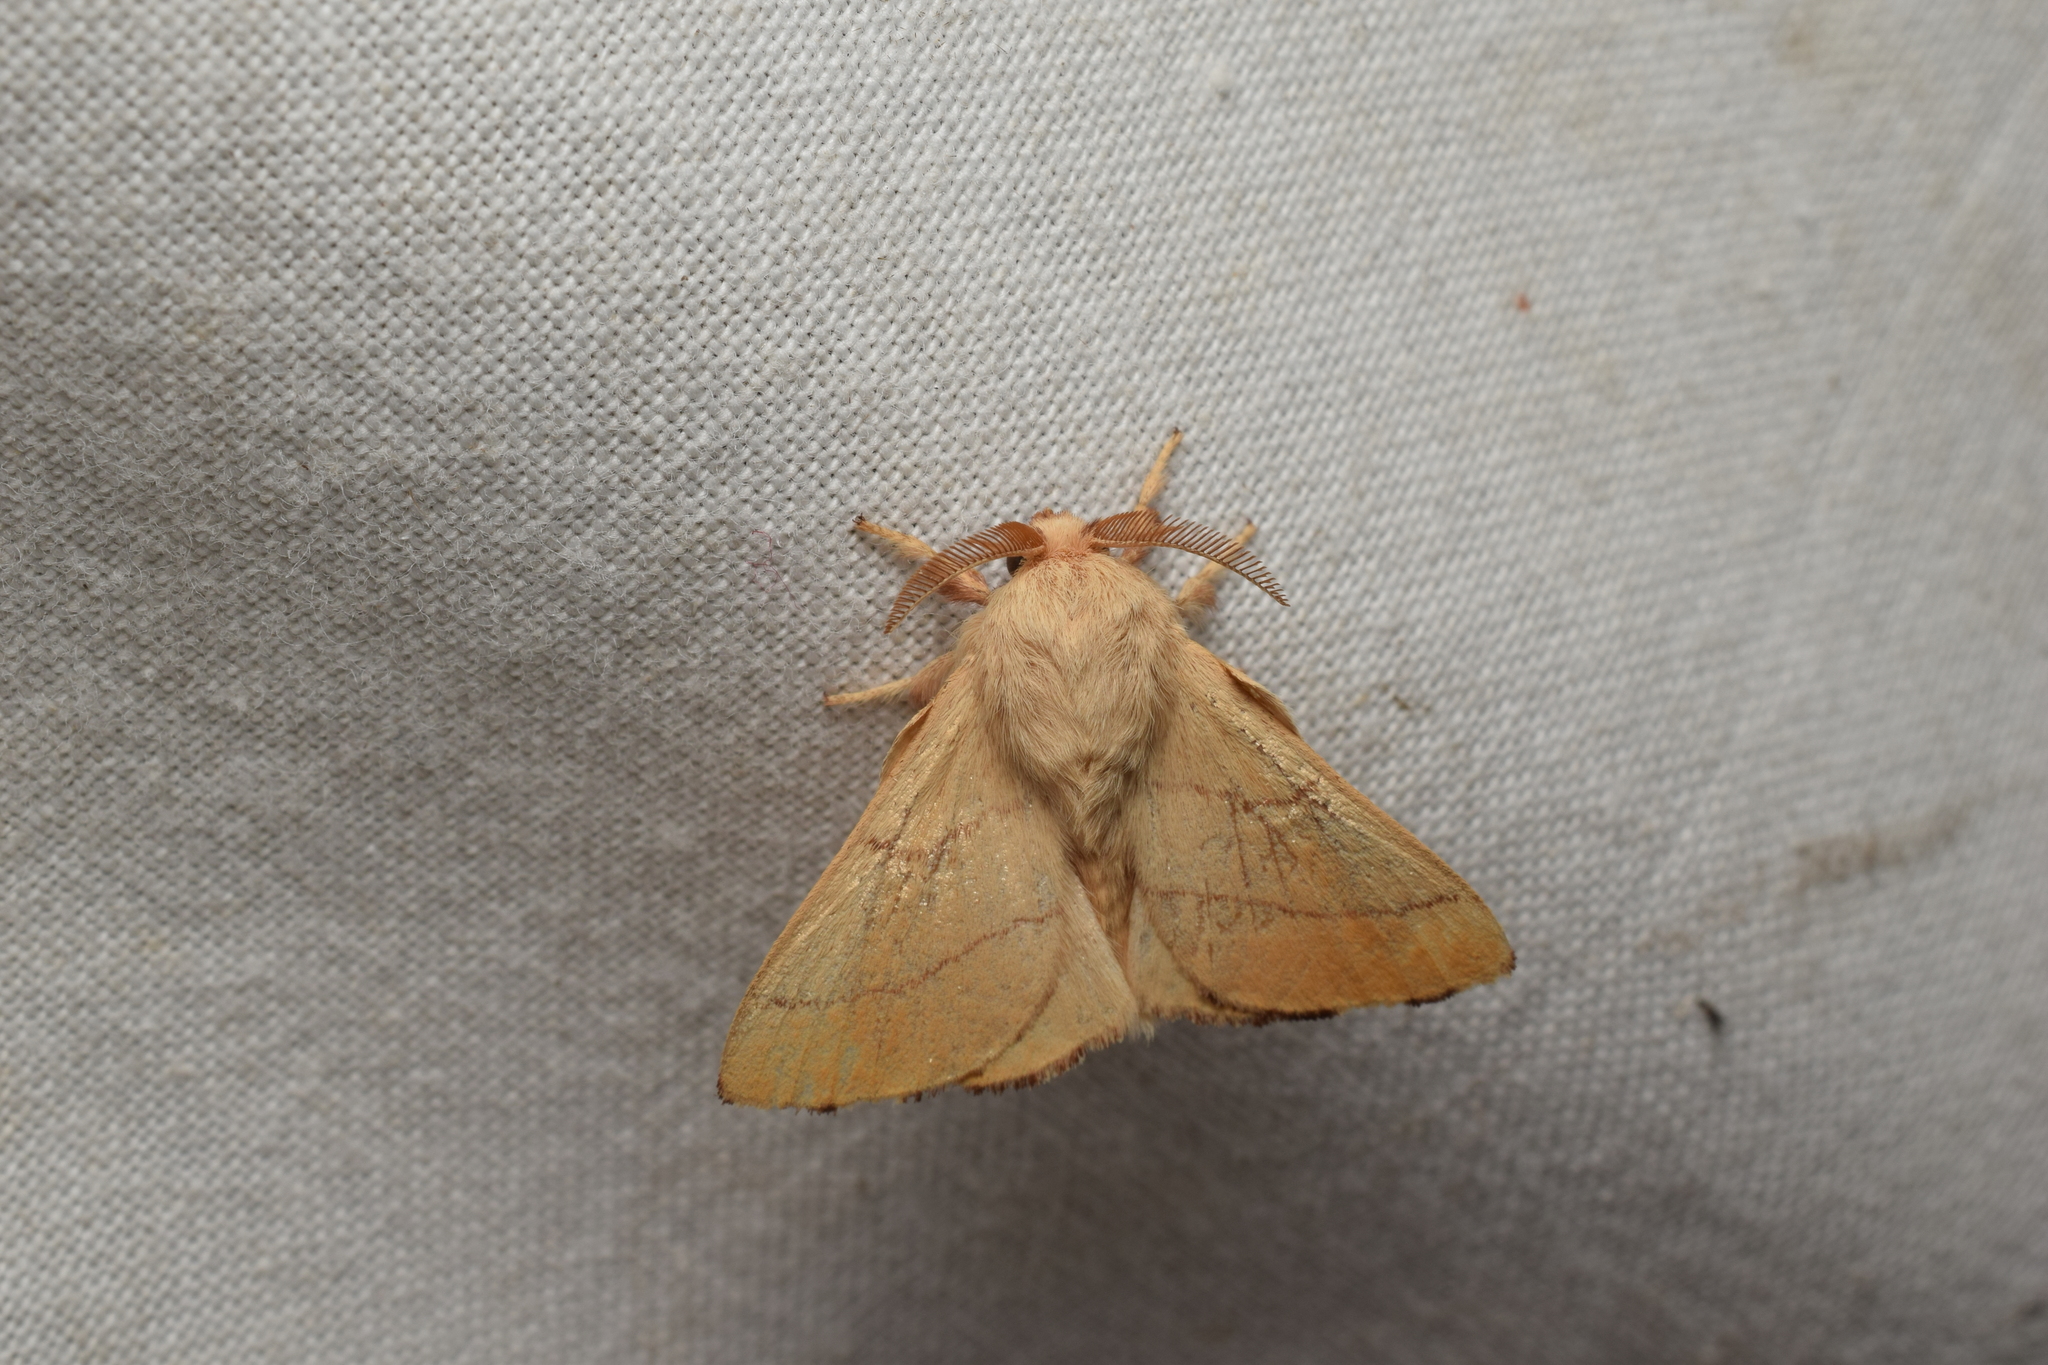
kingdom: Animalia
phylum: Arthropoda
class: Insecta
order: Lepidoptera
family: Lasiocampidae
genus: Malacosoma
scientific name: Malacosoma neustria
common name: The lackey
